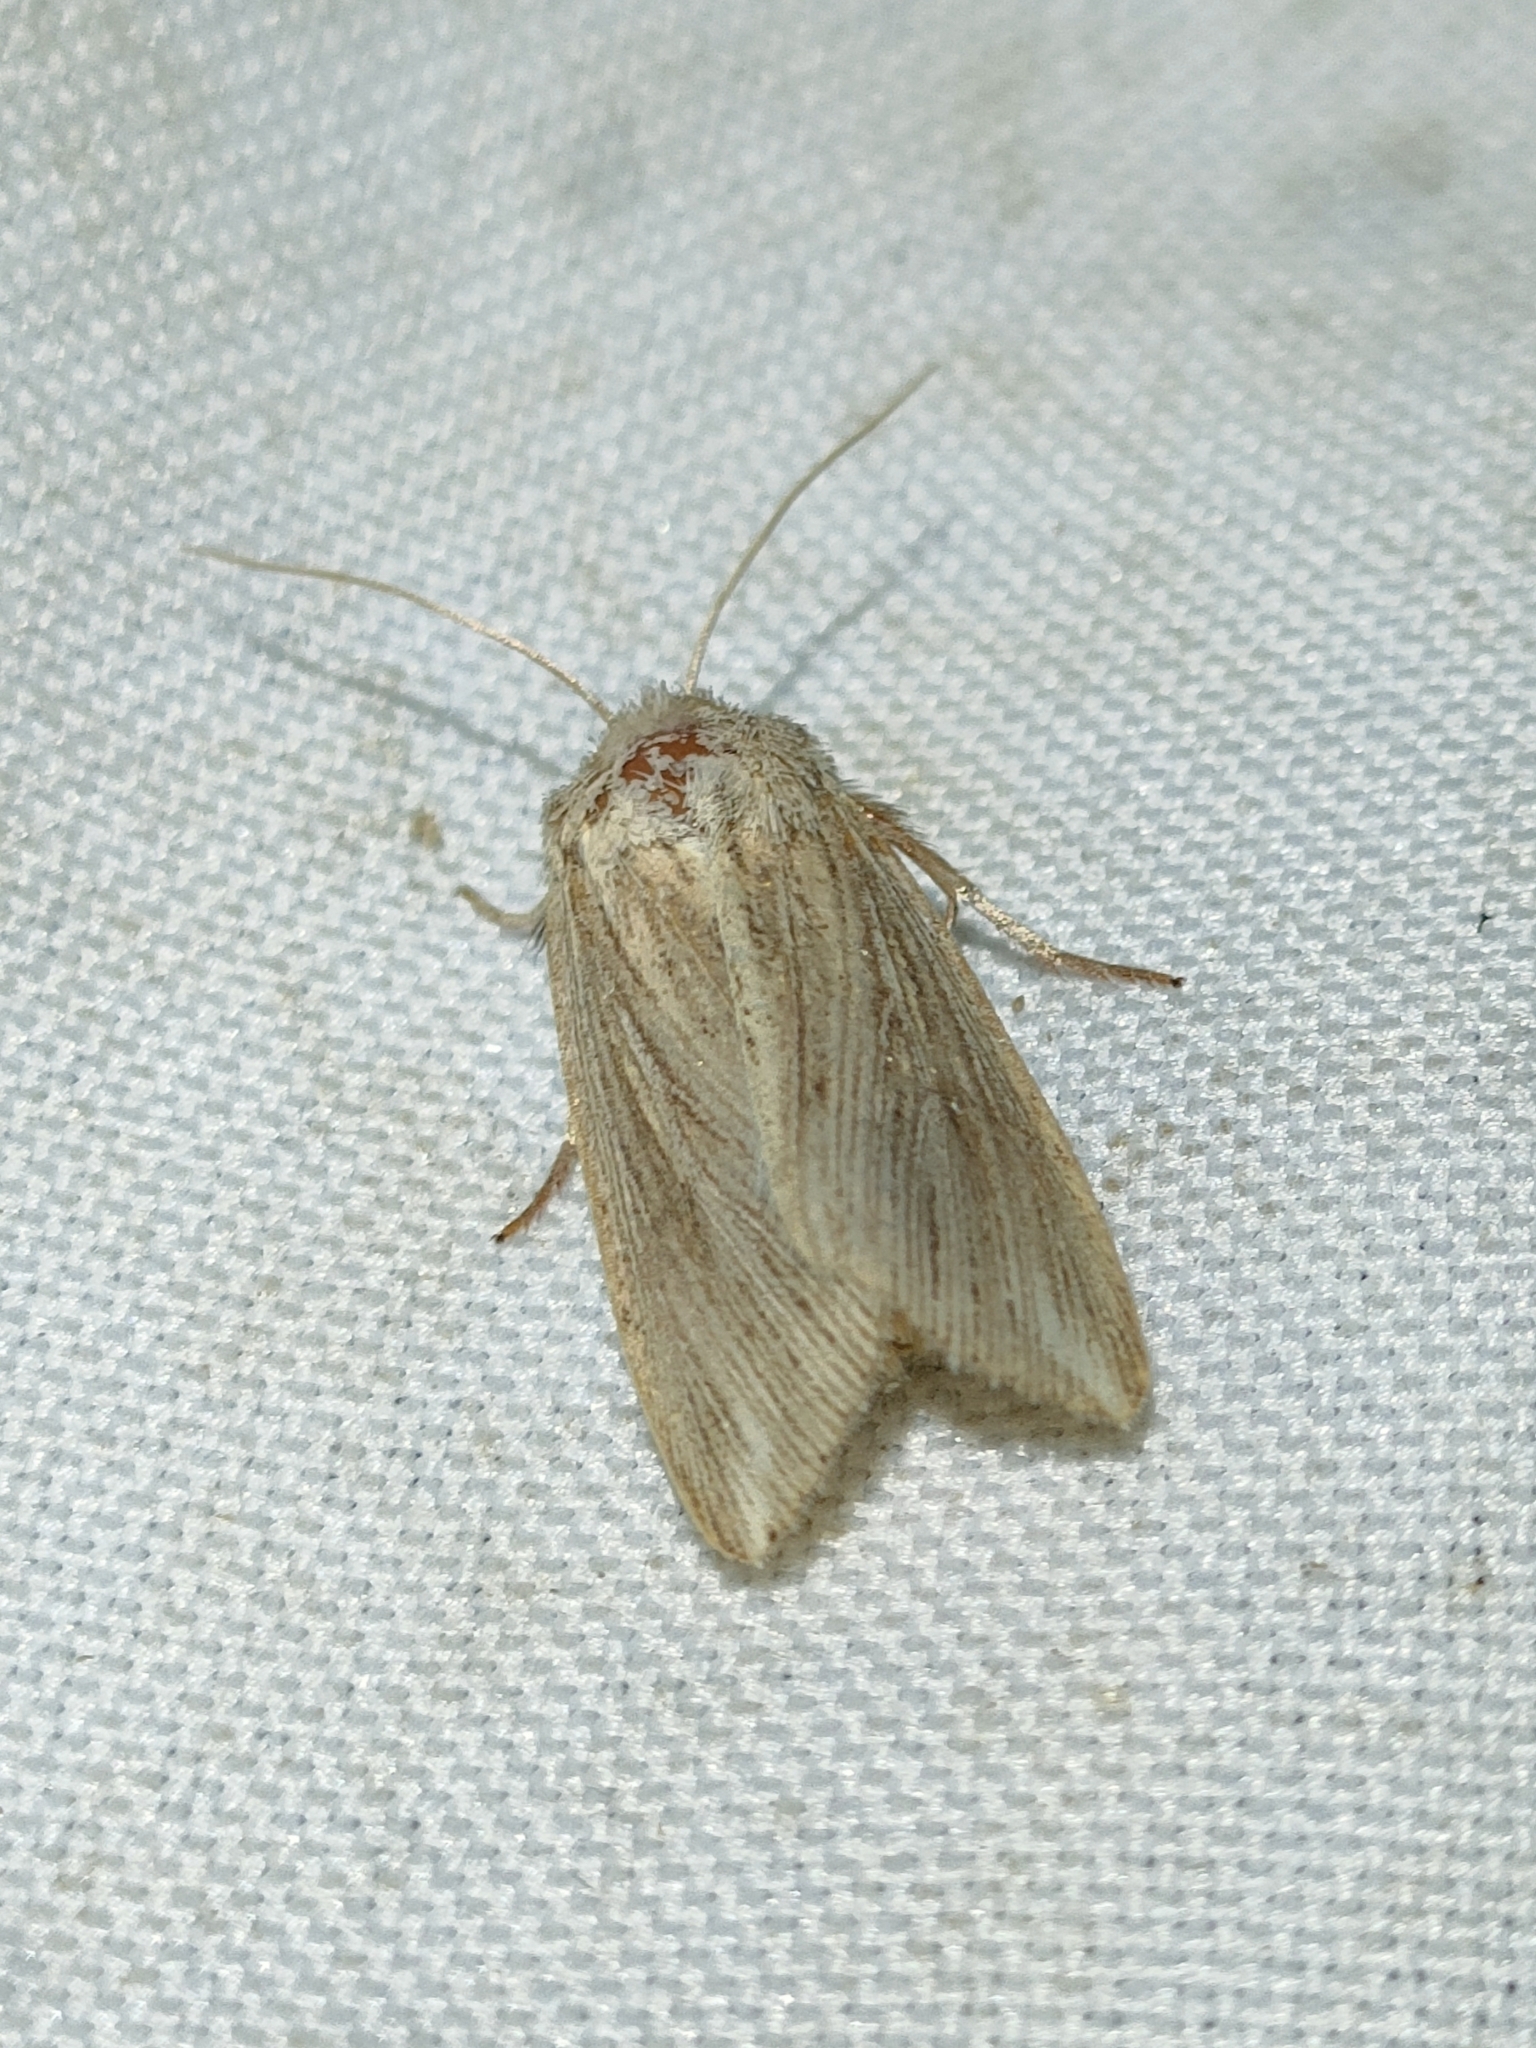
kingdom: Animalia
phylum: Arthropoda
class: Insecta
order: Lepidoptera
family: Noctuidae
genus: Mythimna
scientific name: Mythimna riparia
